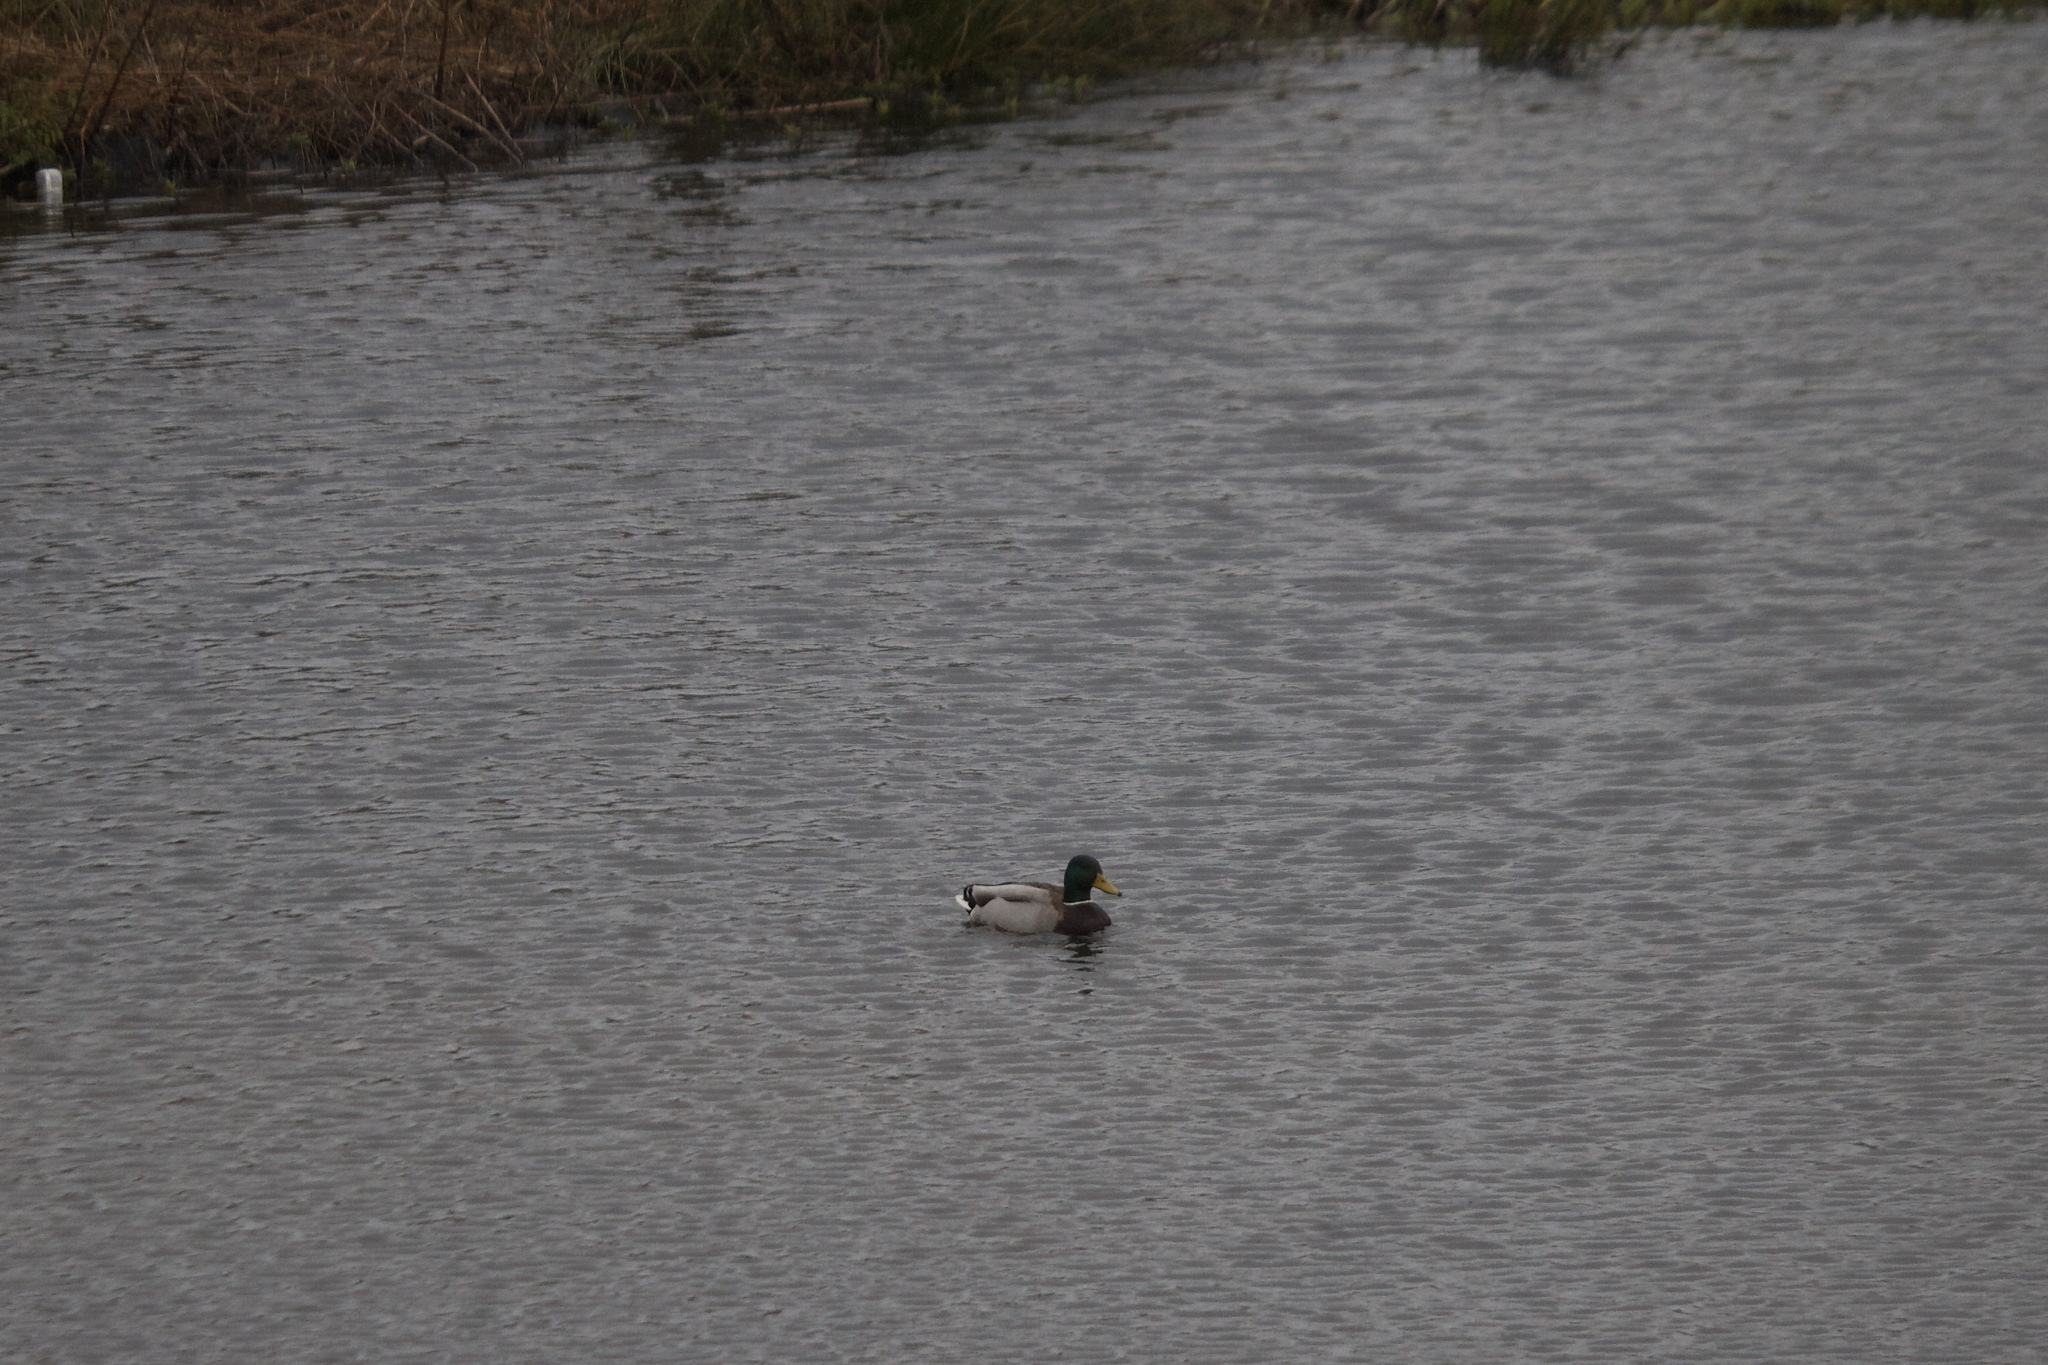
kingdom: Animalia
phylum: Chordata
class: Aves
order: Anseriformes
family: Anatidae
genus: Anas
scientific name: Anas platyrhynchos
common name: Mallard
